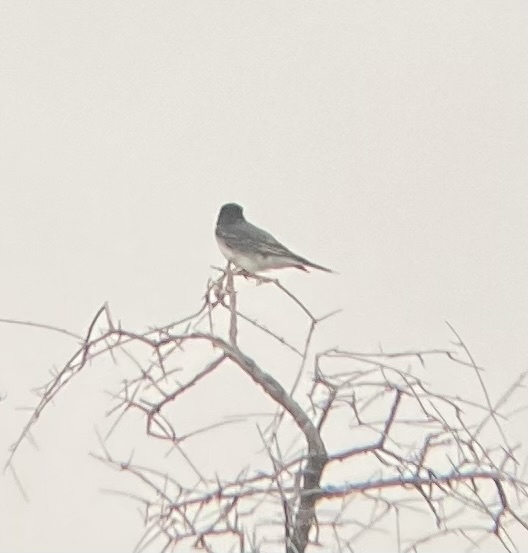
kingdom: Animalia
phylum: Chordata
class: Aves
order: Passeriformes
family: Tyrannidae
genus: Tyrannus
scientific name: Tyrannus tyrannus
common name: Eastern kingbird
